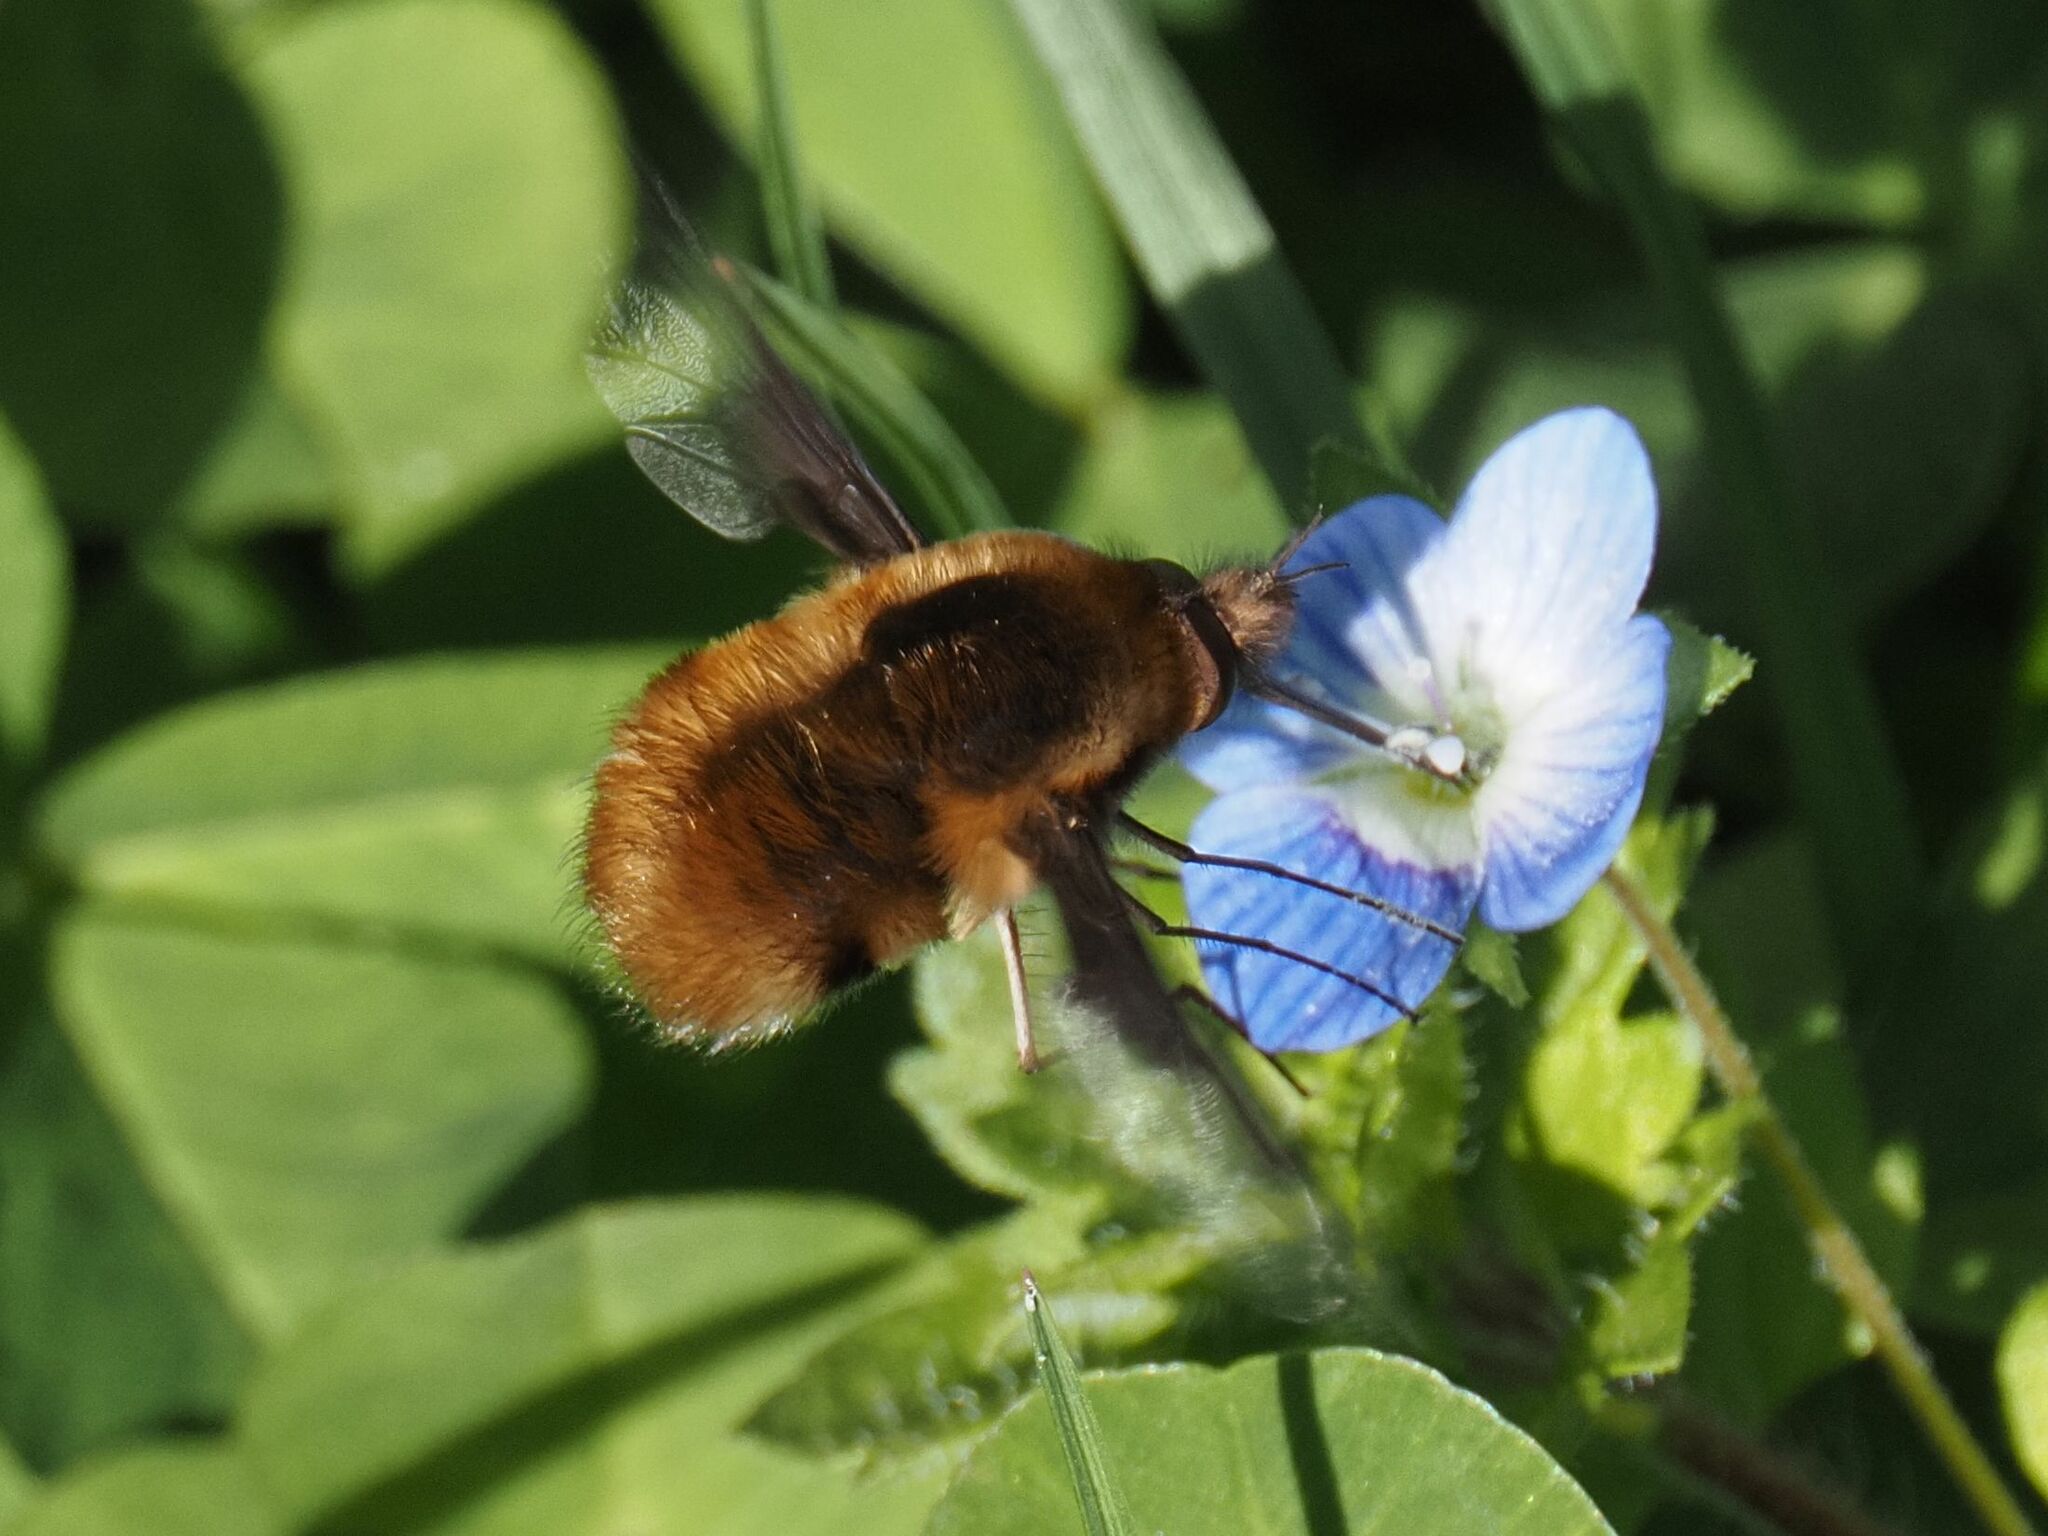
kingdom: Animalia
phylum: Arthropoda
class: Insecta
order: Diptera
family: Bombyliidae
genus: Bombylius
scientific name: Bombylius major
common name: Bee fly
